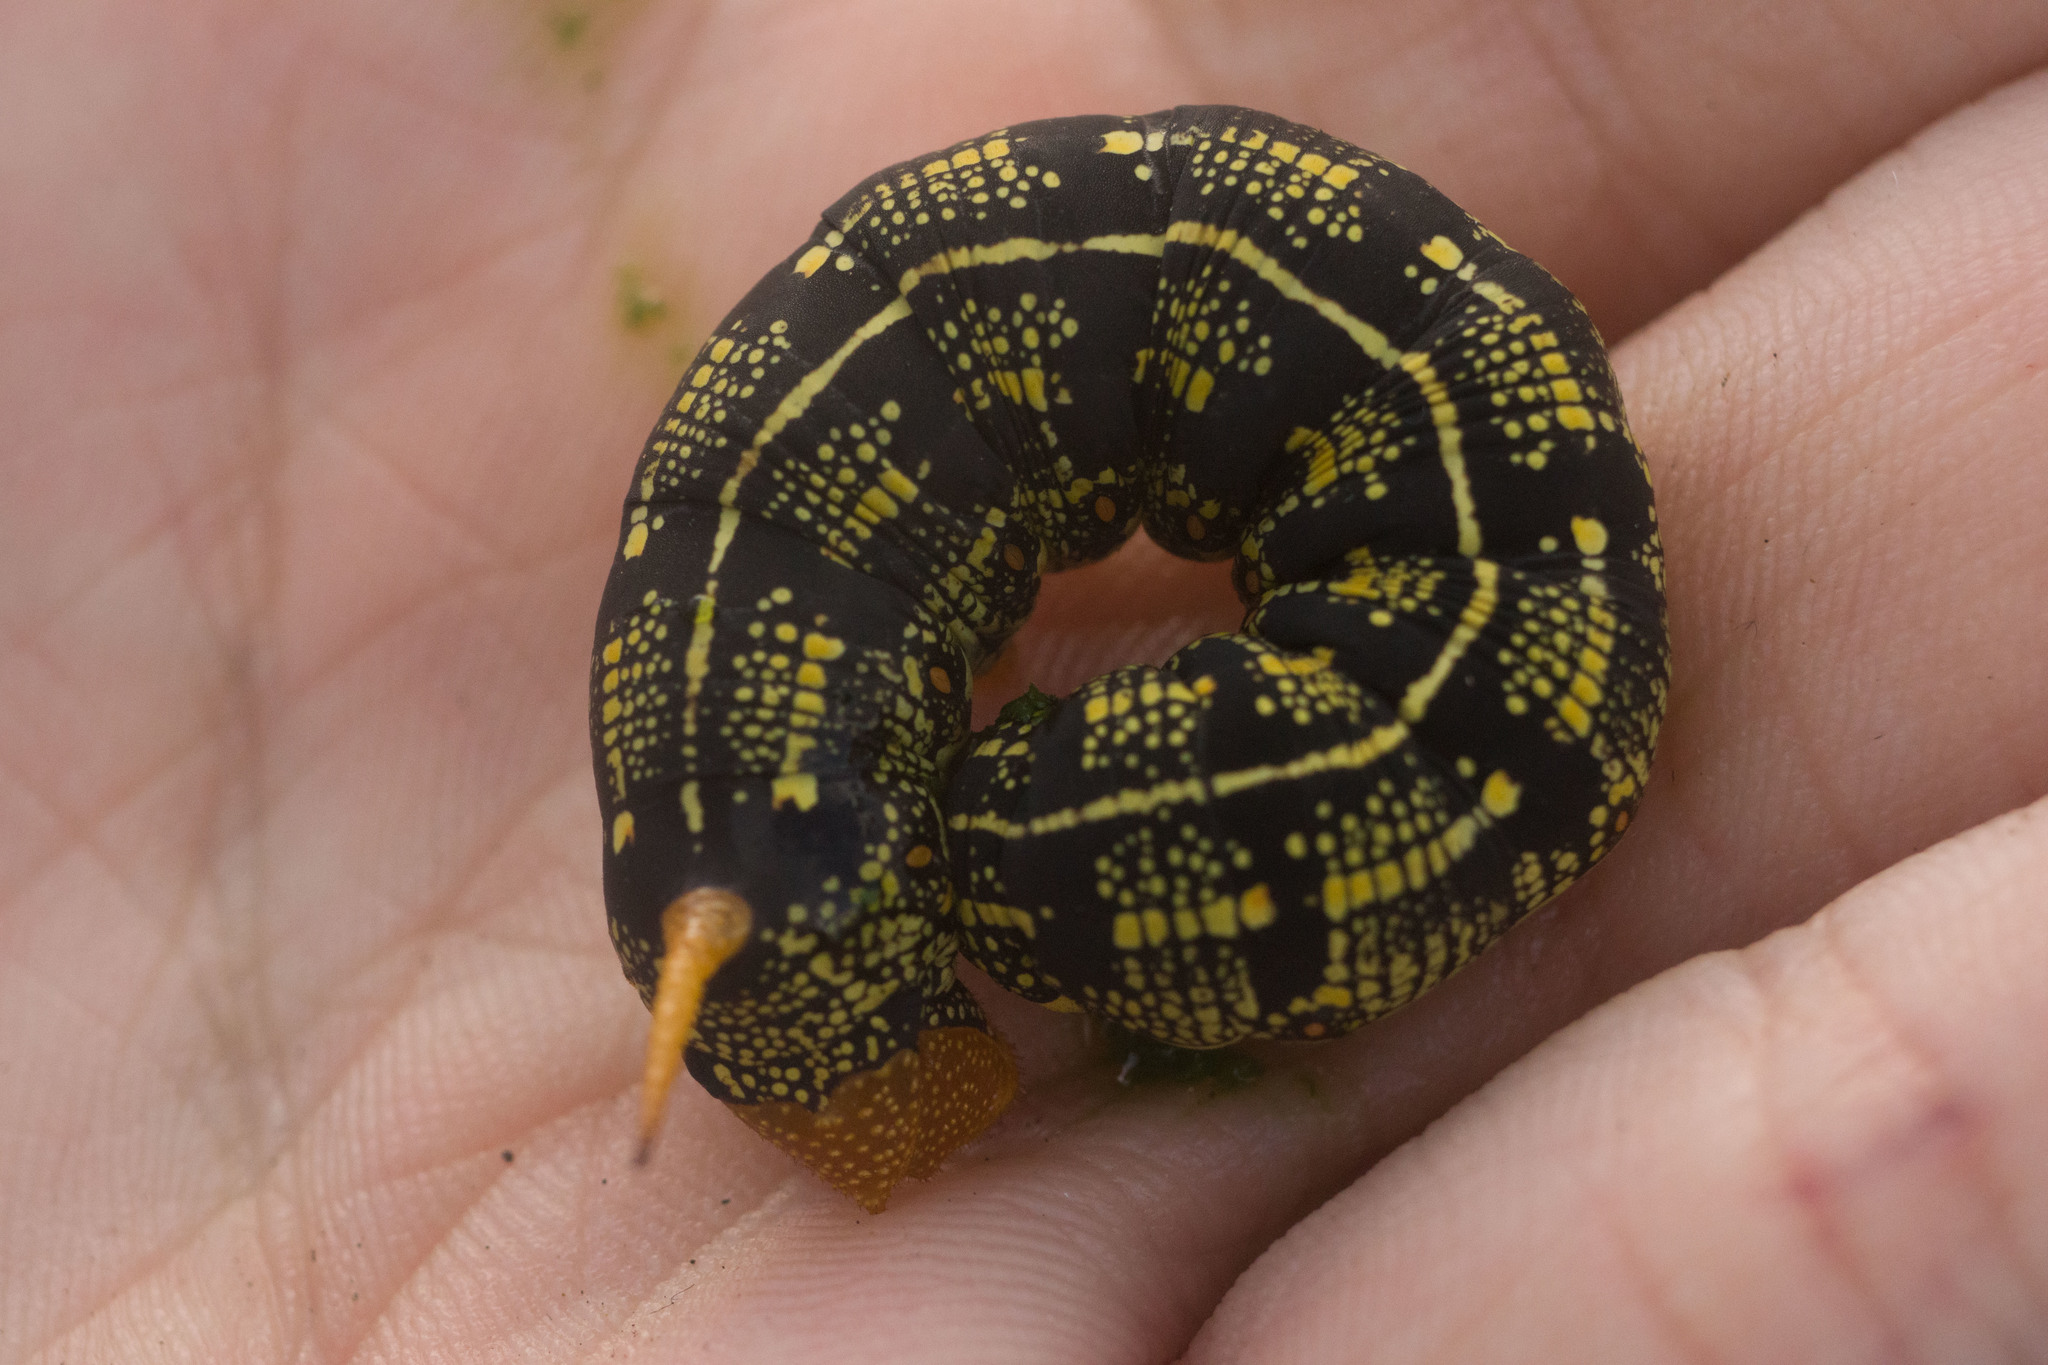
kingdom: Animalia
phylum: Arthropoda
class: Insecta
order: Lepidoptera
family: Sphingidae
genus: Hyles
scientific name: Hyles lineata
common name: White-lined sphinx
